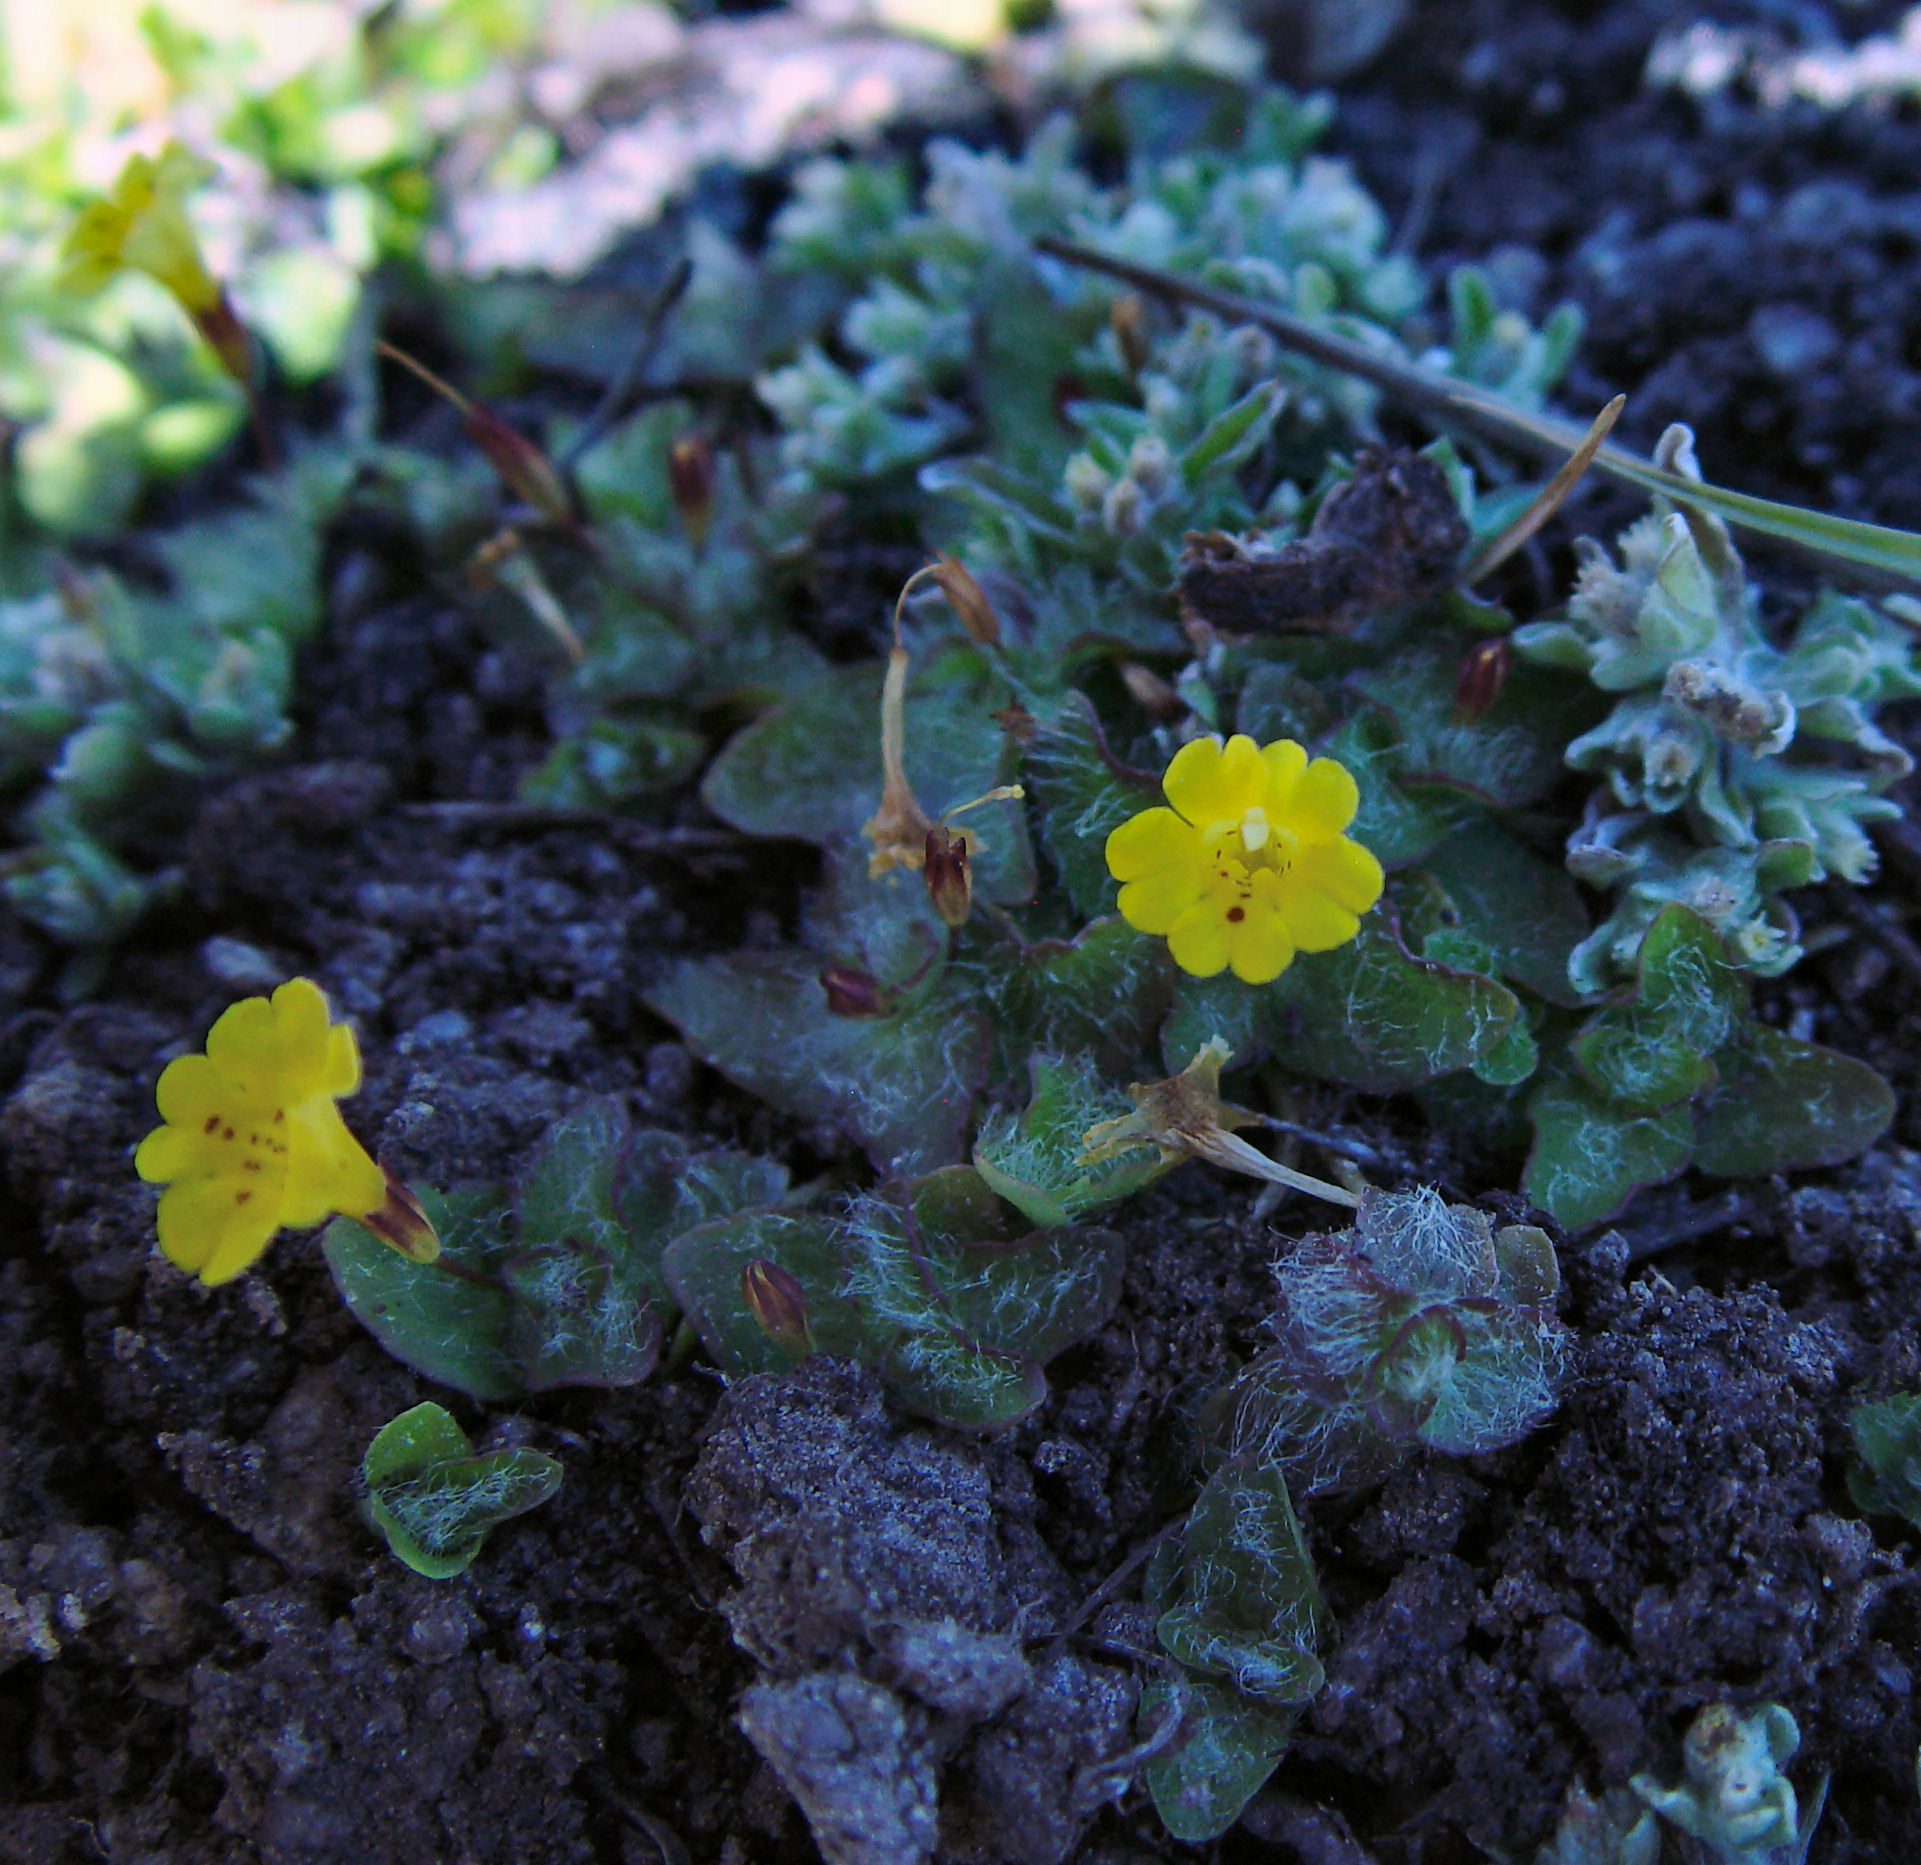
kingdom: Plantae
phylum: Tracheophyta
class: Magnoliopsida
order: Lamiales
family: Phrymaceae
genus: Erythranthe
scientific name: Erythranthe primuloides
